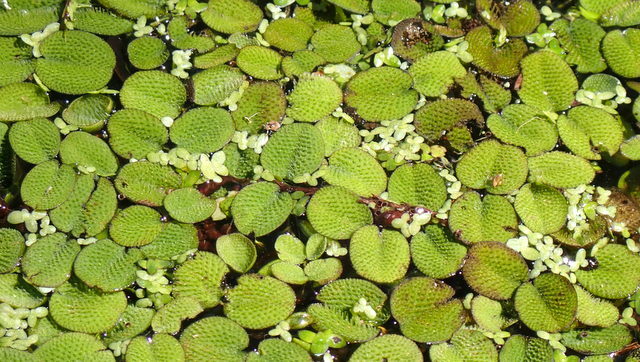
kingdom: Plantae
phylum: Tracheophyta
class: Polypodiopsida
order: Salviniales
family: Salviniaceae
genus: Salvinia
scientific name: Salvinia minima
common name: Water spangles
